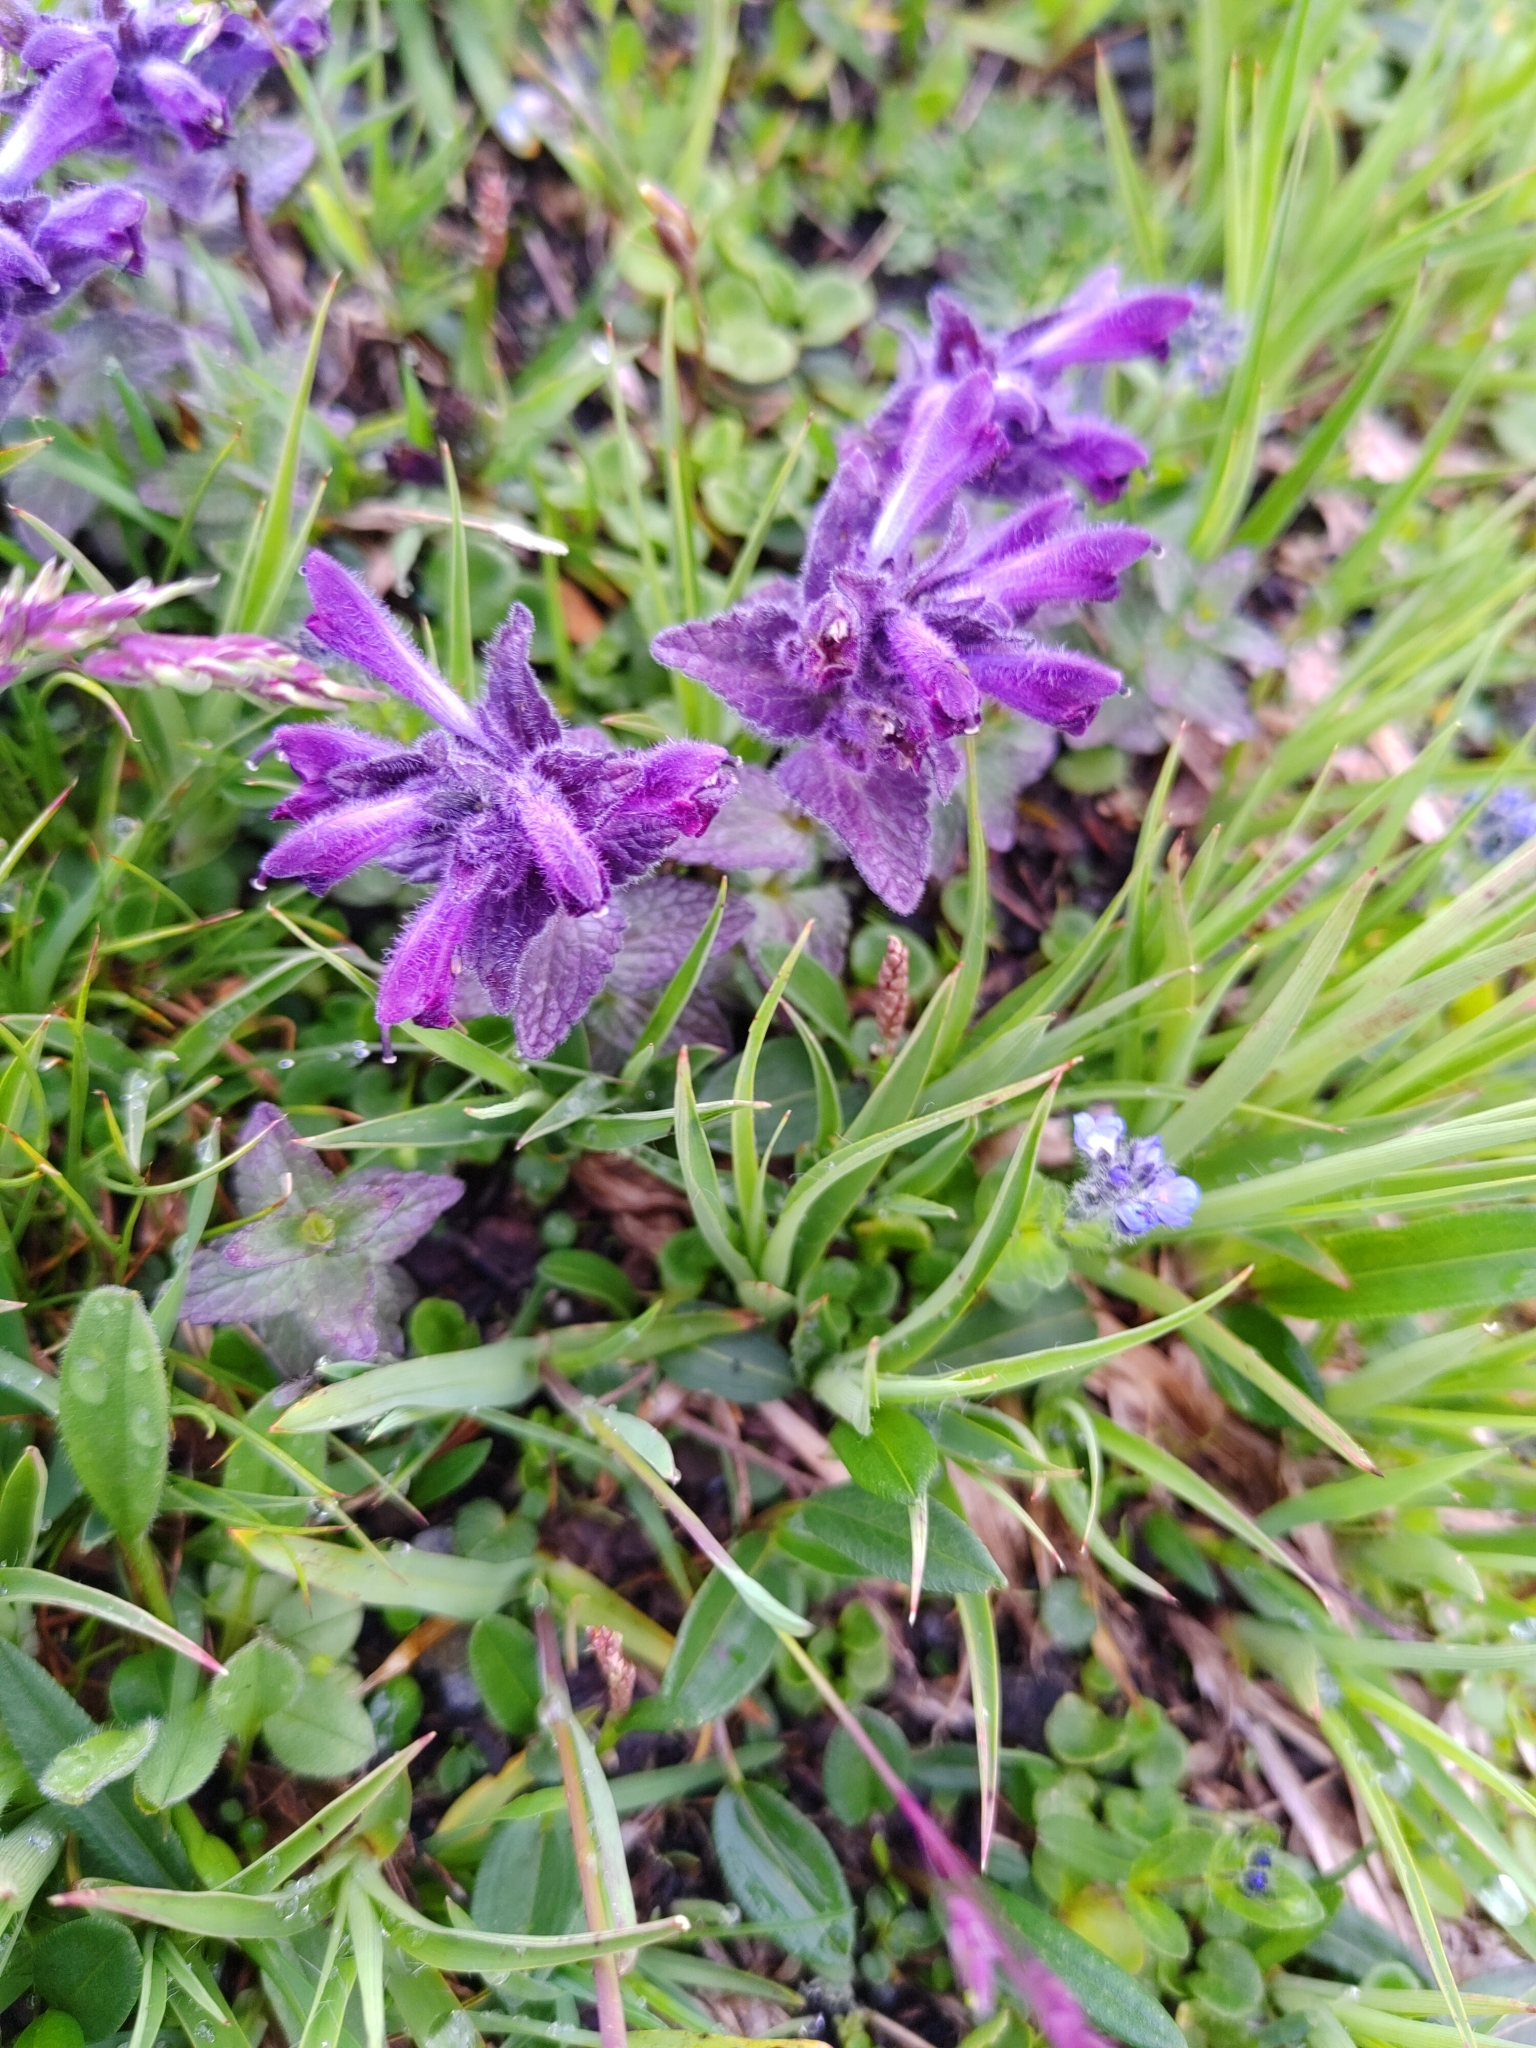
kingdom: Plantae
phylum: Tracheophyta
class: Magnoliopsida
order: Lamiales
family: Orobanchaceae
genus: Bartsia
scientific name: Bartsia alpina
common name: Alpine bartsia
